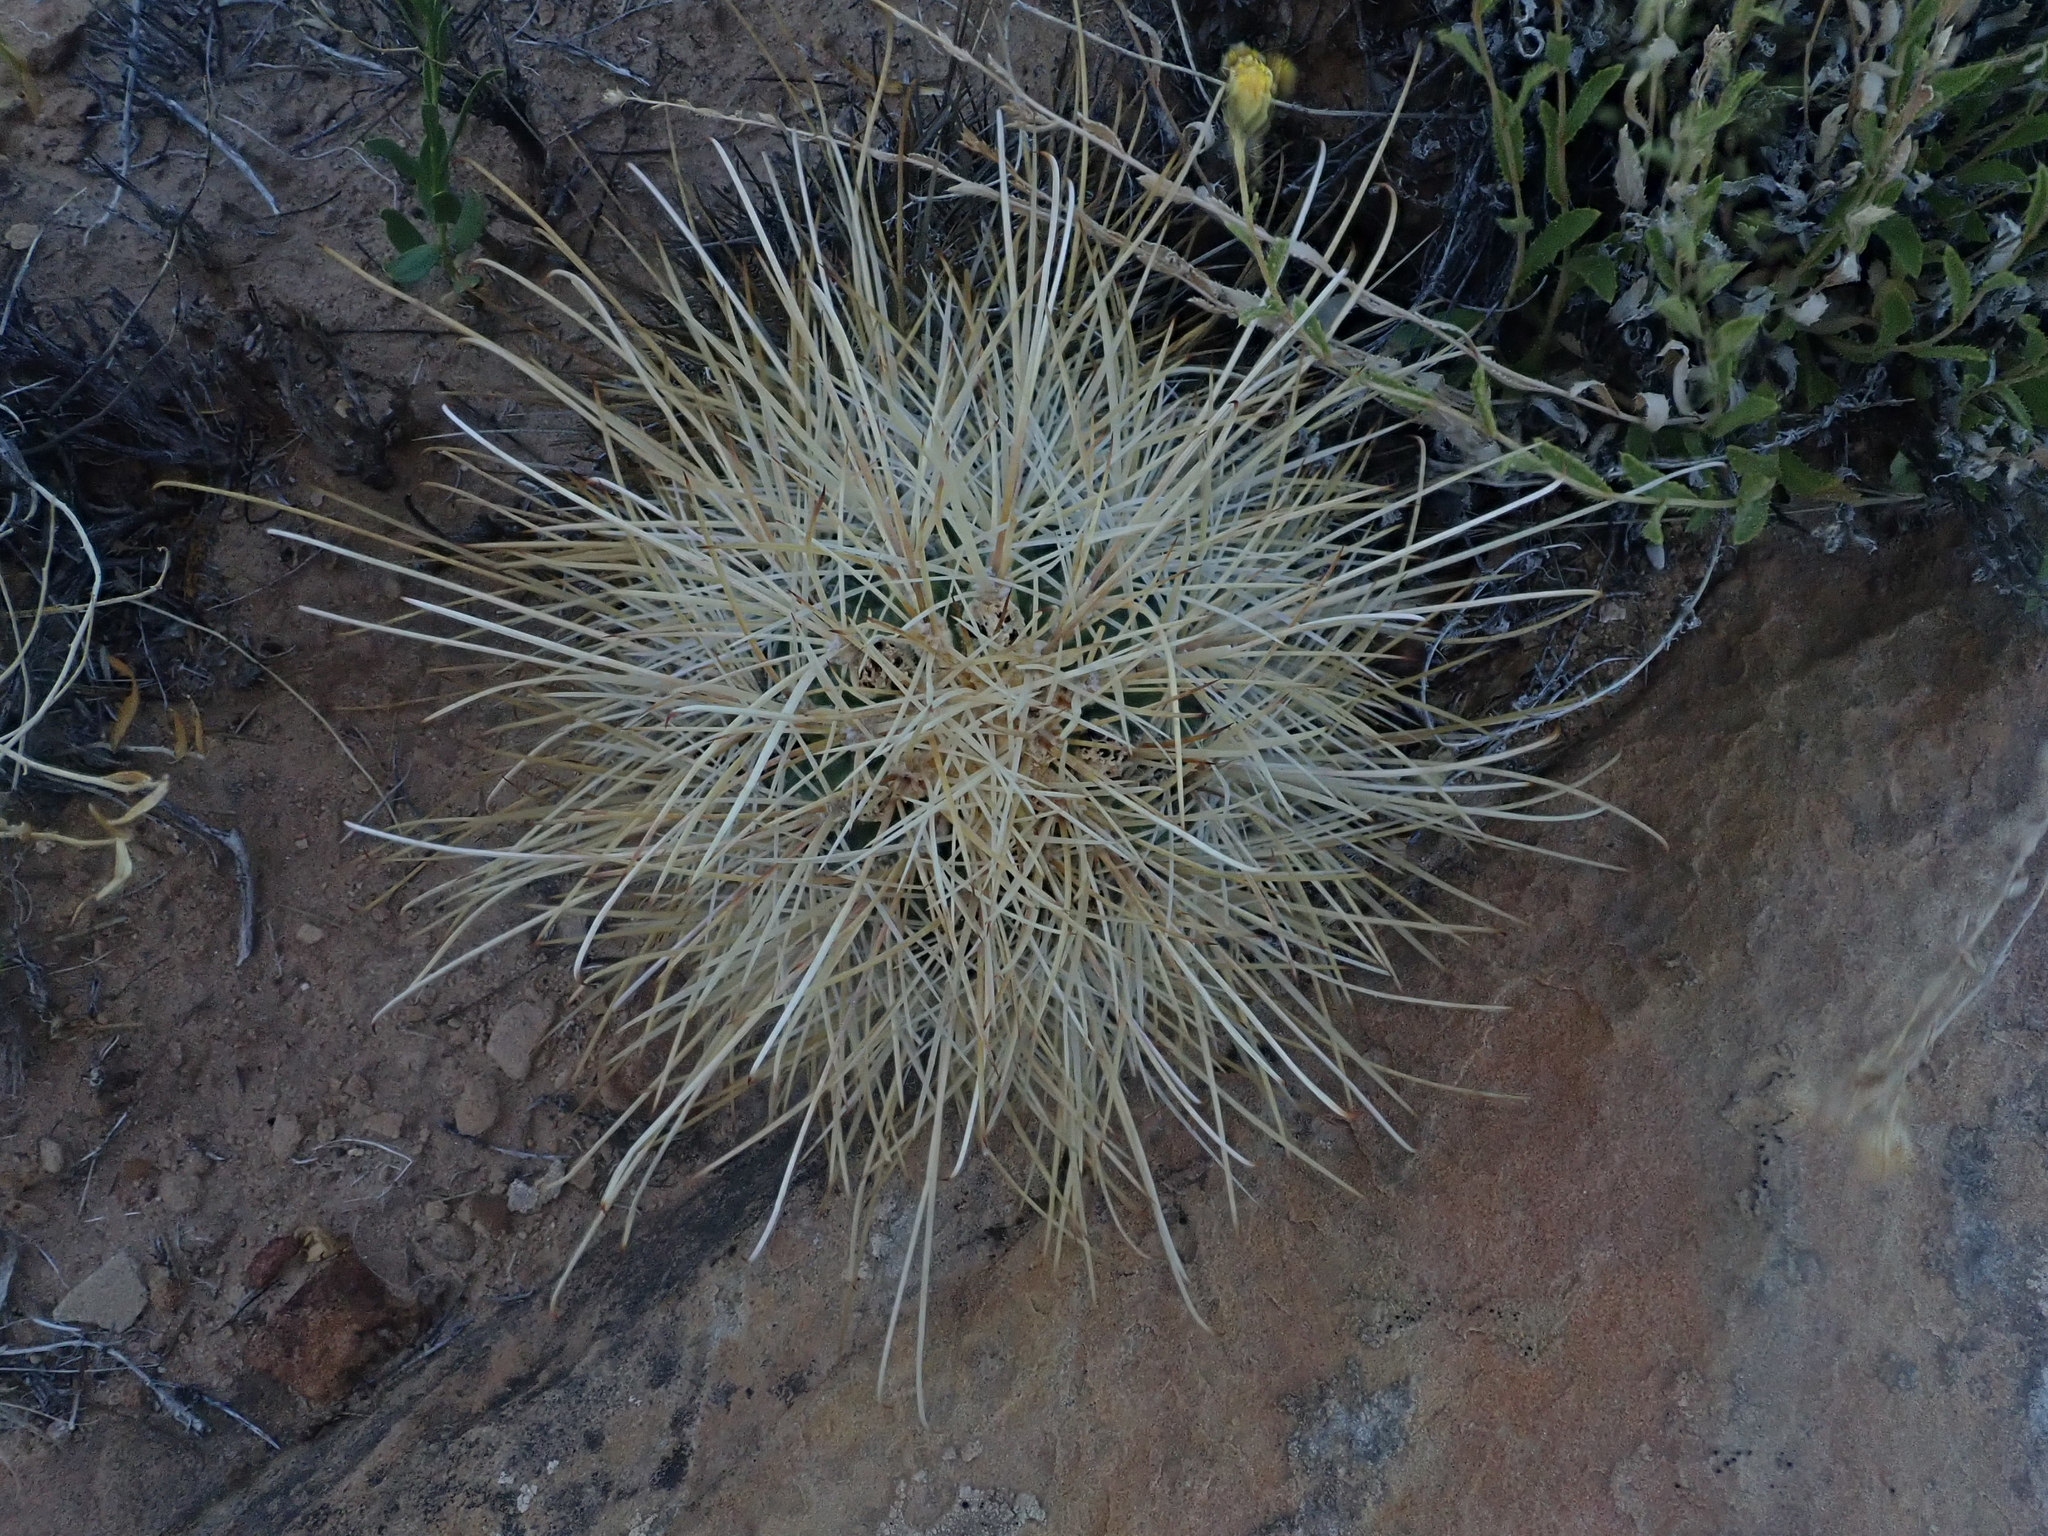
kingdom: Plantae
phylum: Tracheophyta
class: Magnoliopsida
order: Caryophyllales
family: Cactaceae
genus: Sclerocactus
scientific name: Sclerocactus parviflorus
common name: Small-flower fishhook cactus
